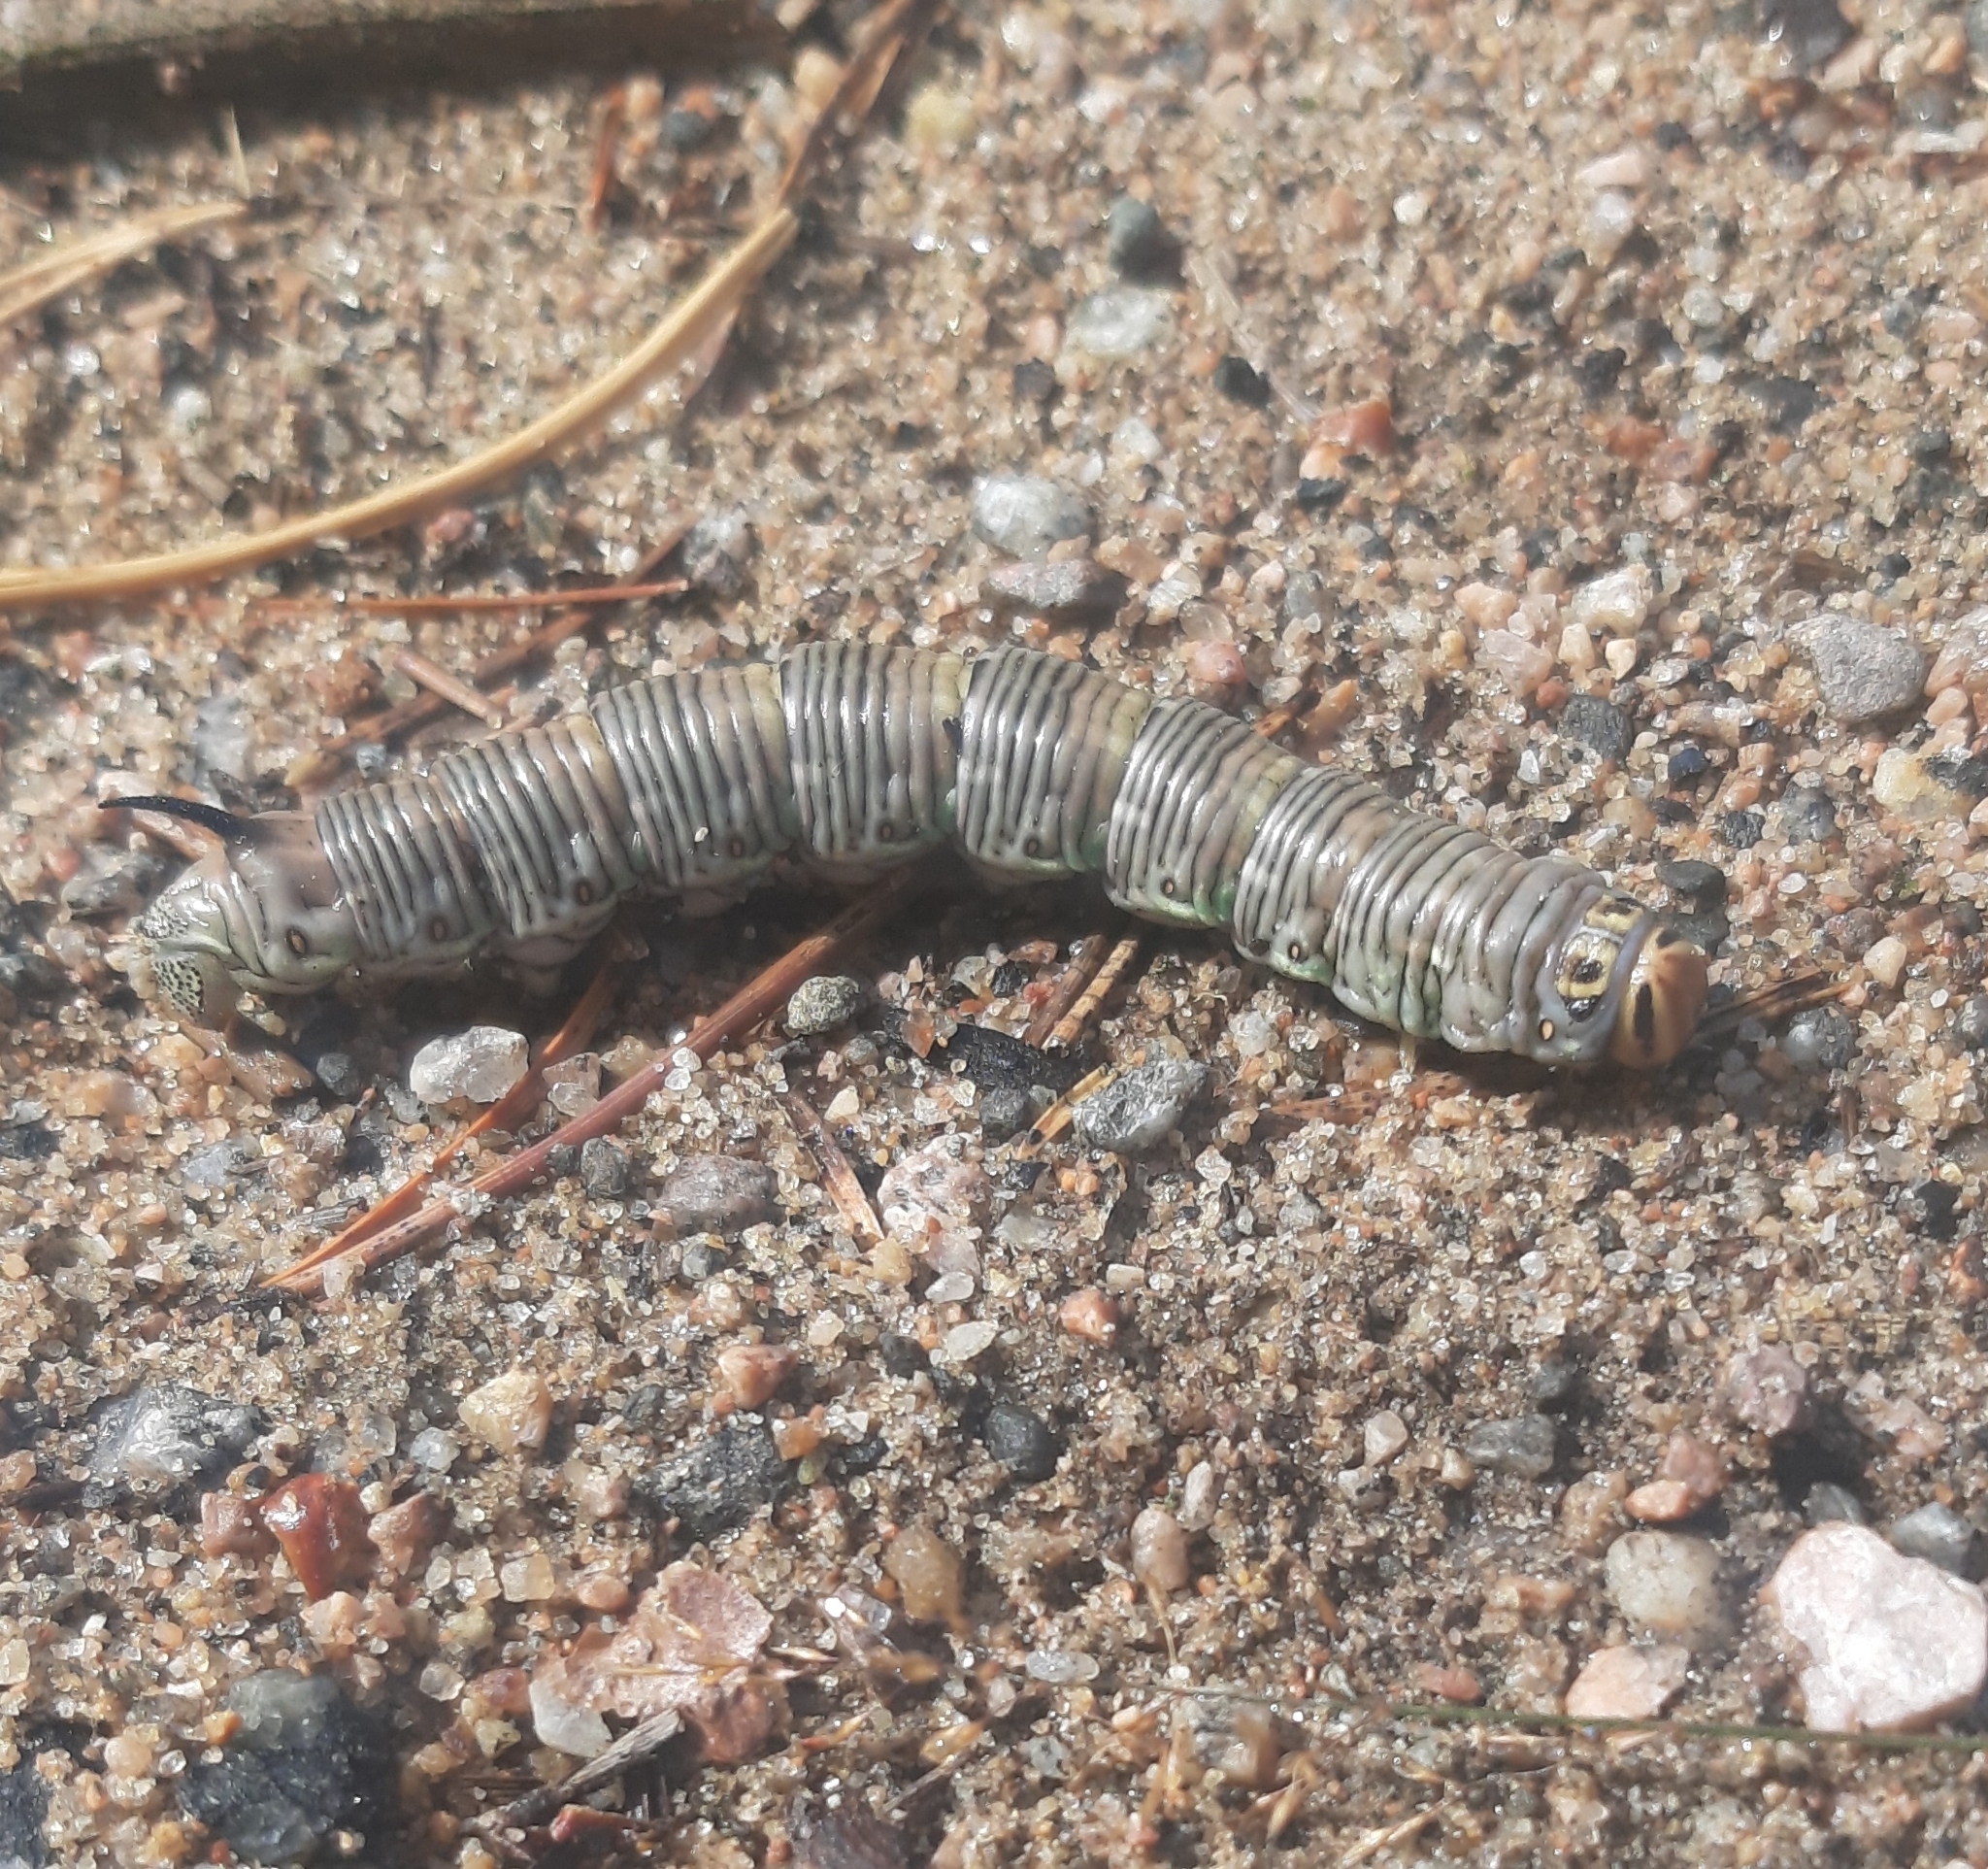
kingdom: Animalia
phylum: Arthropoda
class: Insecta
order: Lepidoptera
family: Sphingidae
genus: Sphinx
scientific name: Sphinx pinastri
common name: Pine hawk-moth
